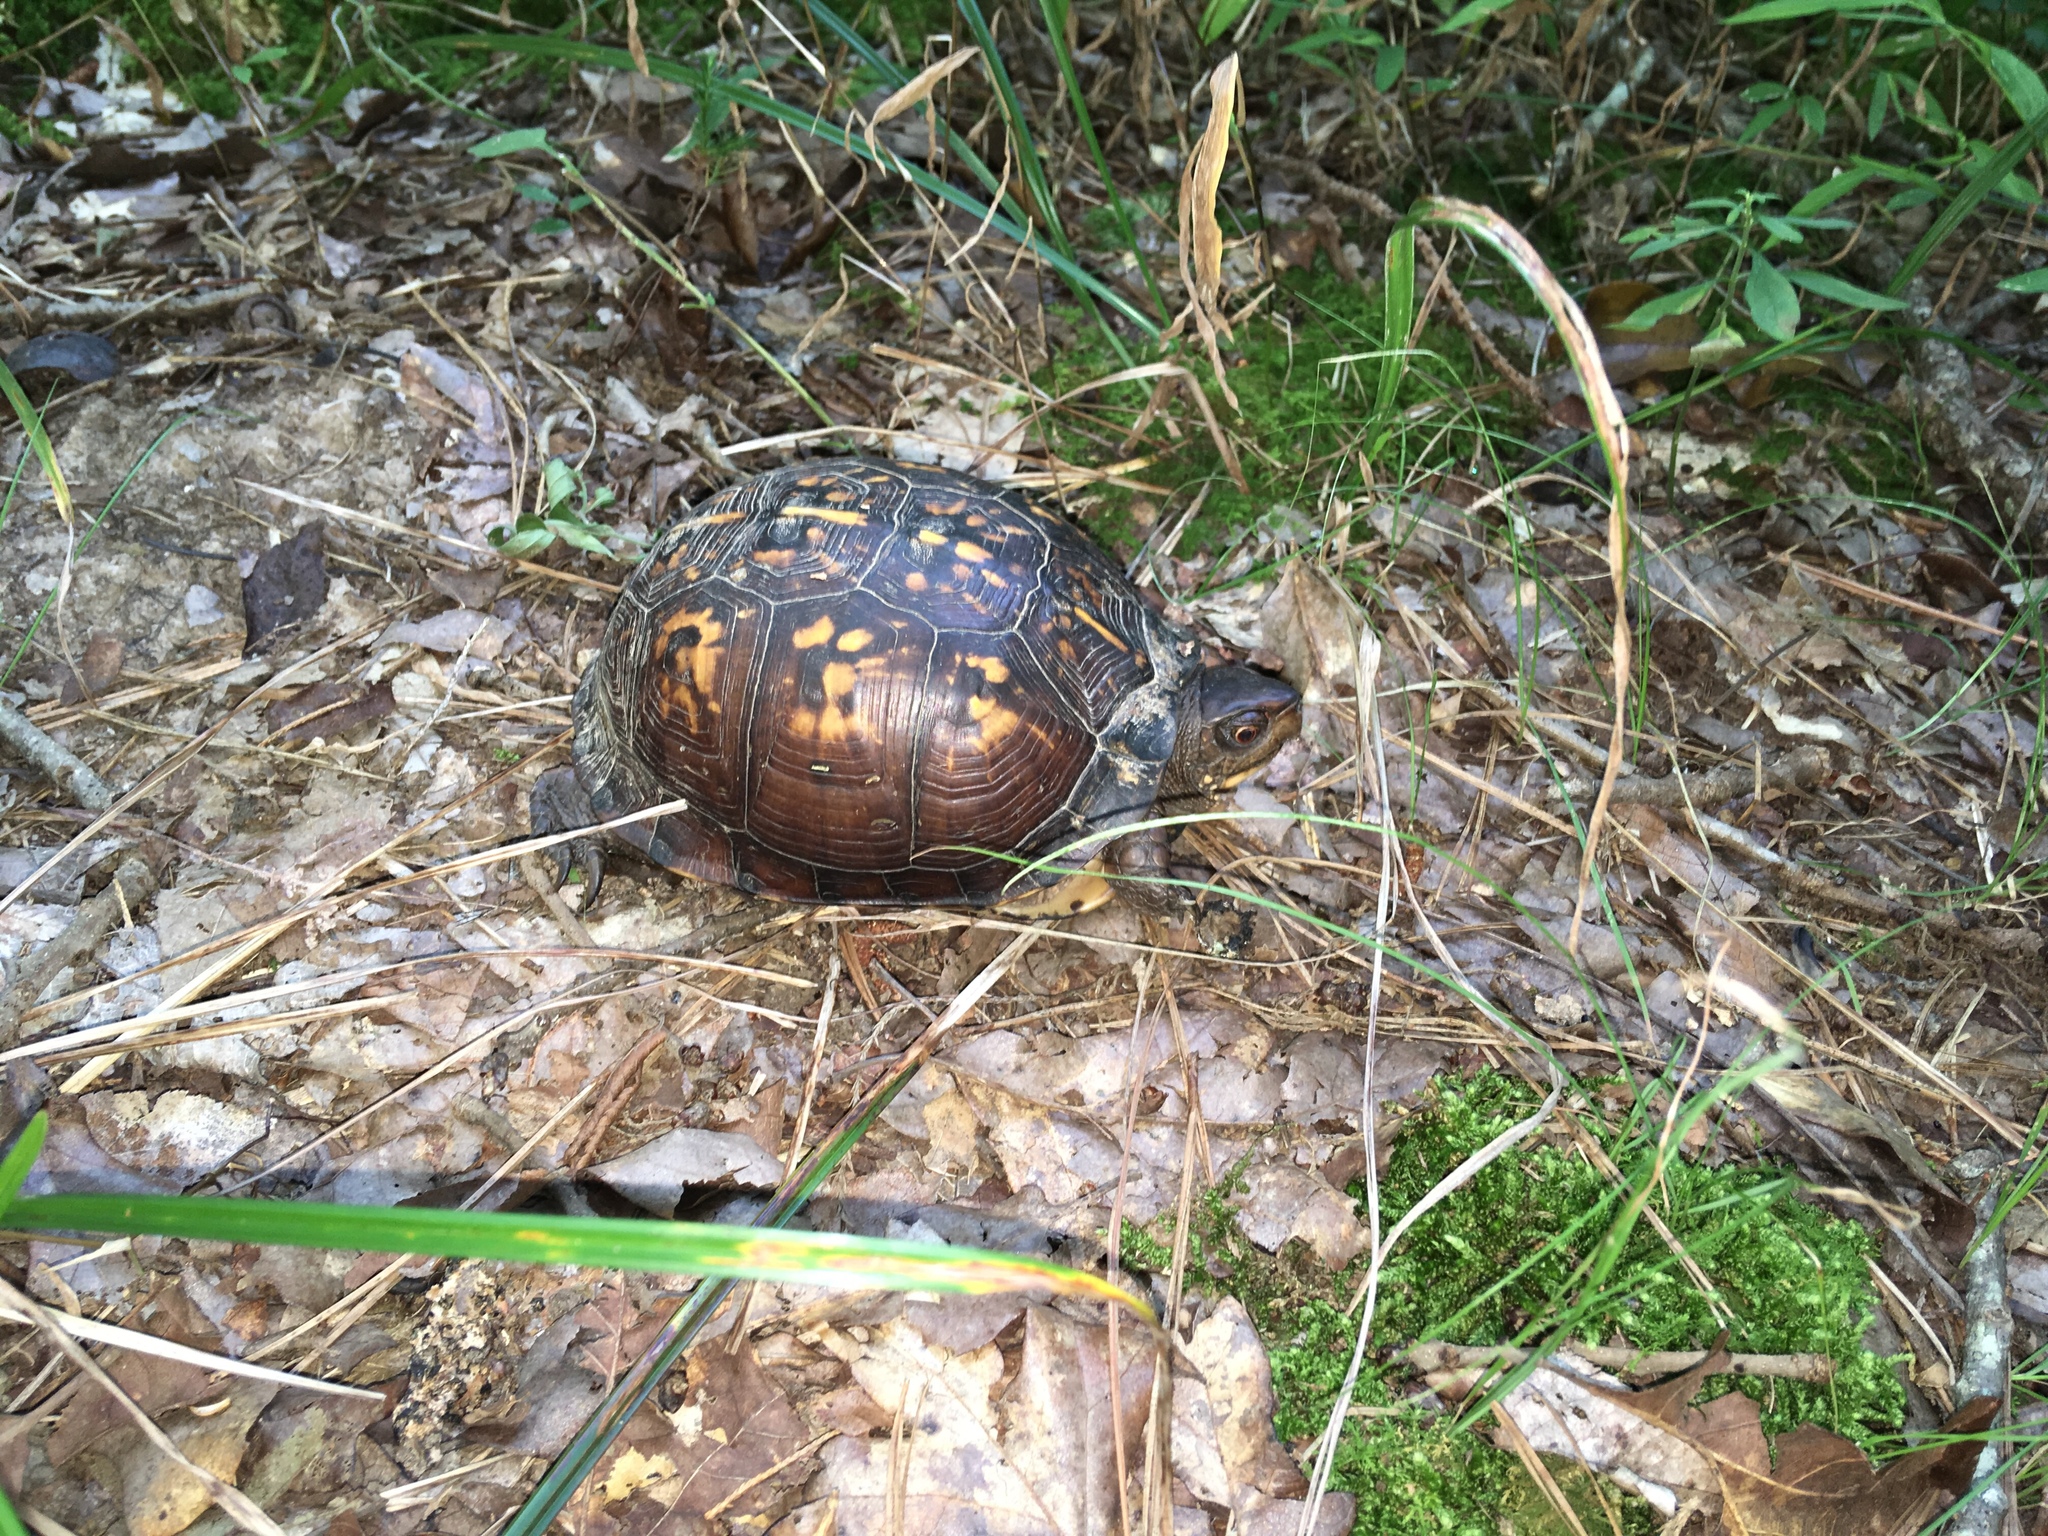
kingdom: Animalia
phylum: Chordata
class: Testudines
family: Emydidae
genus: Terrapene
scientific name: Terrapene carolina
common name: Common box turtle
